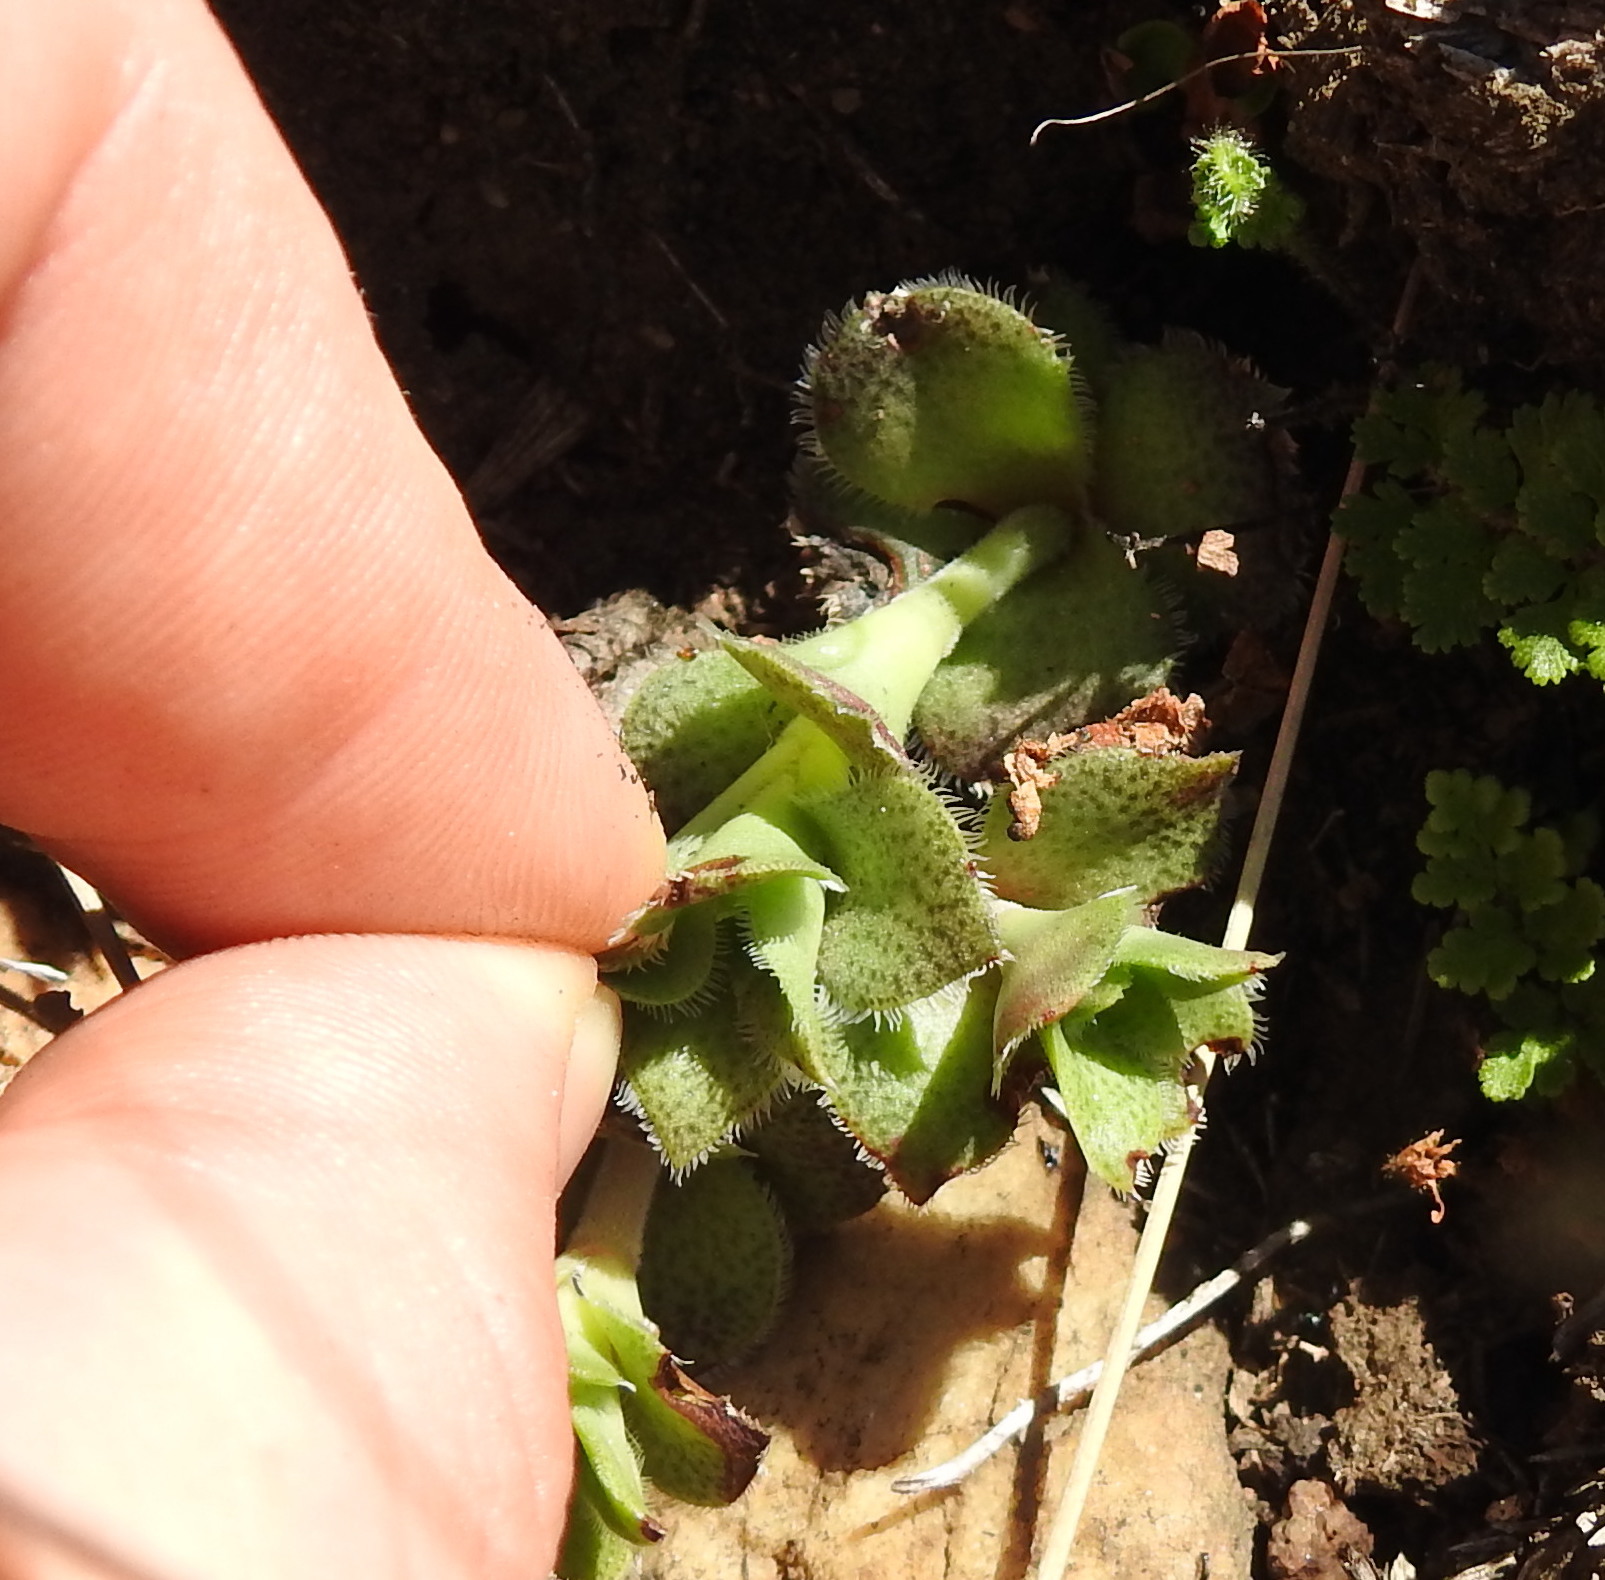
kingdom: Plantae
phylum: Tracheophyta
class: Magnoliopsida
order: Saxifragales
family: Crassulaceae
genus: Crassula
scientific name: Crassula setulosa
